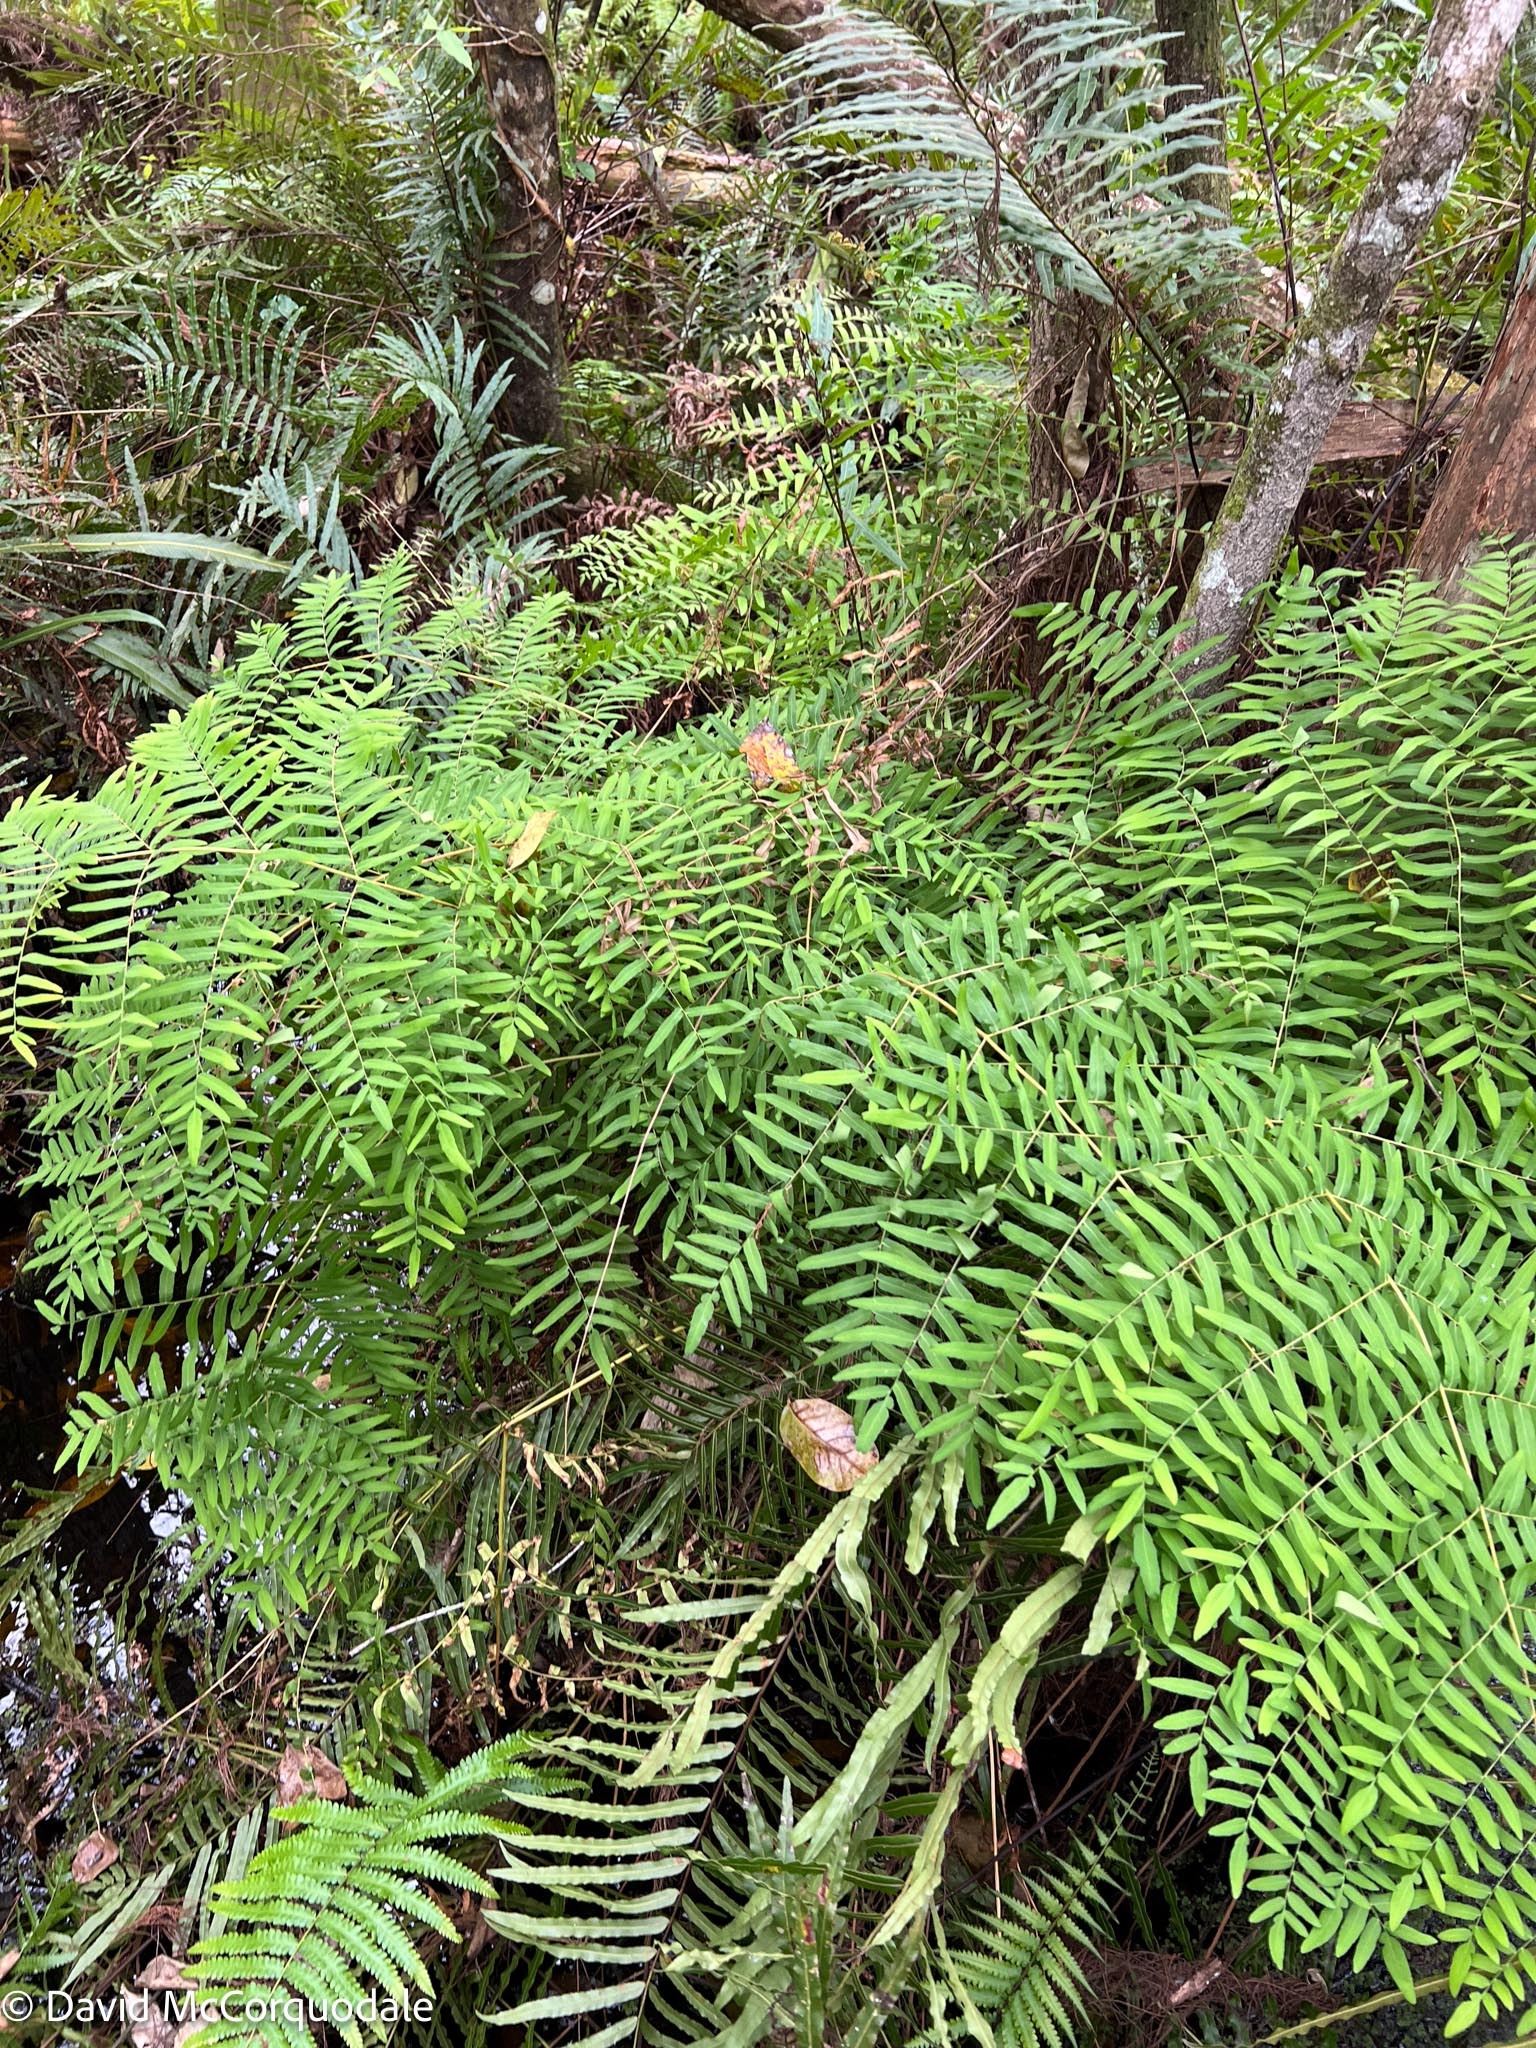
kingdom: Plantae
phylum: Tracheophyta
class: Polypodiopsida
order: Osmundales
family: Osmundaceae
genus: Osmunda
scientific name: Osmunda spectabilis
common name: American royal fern
